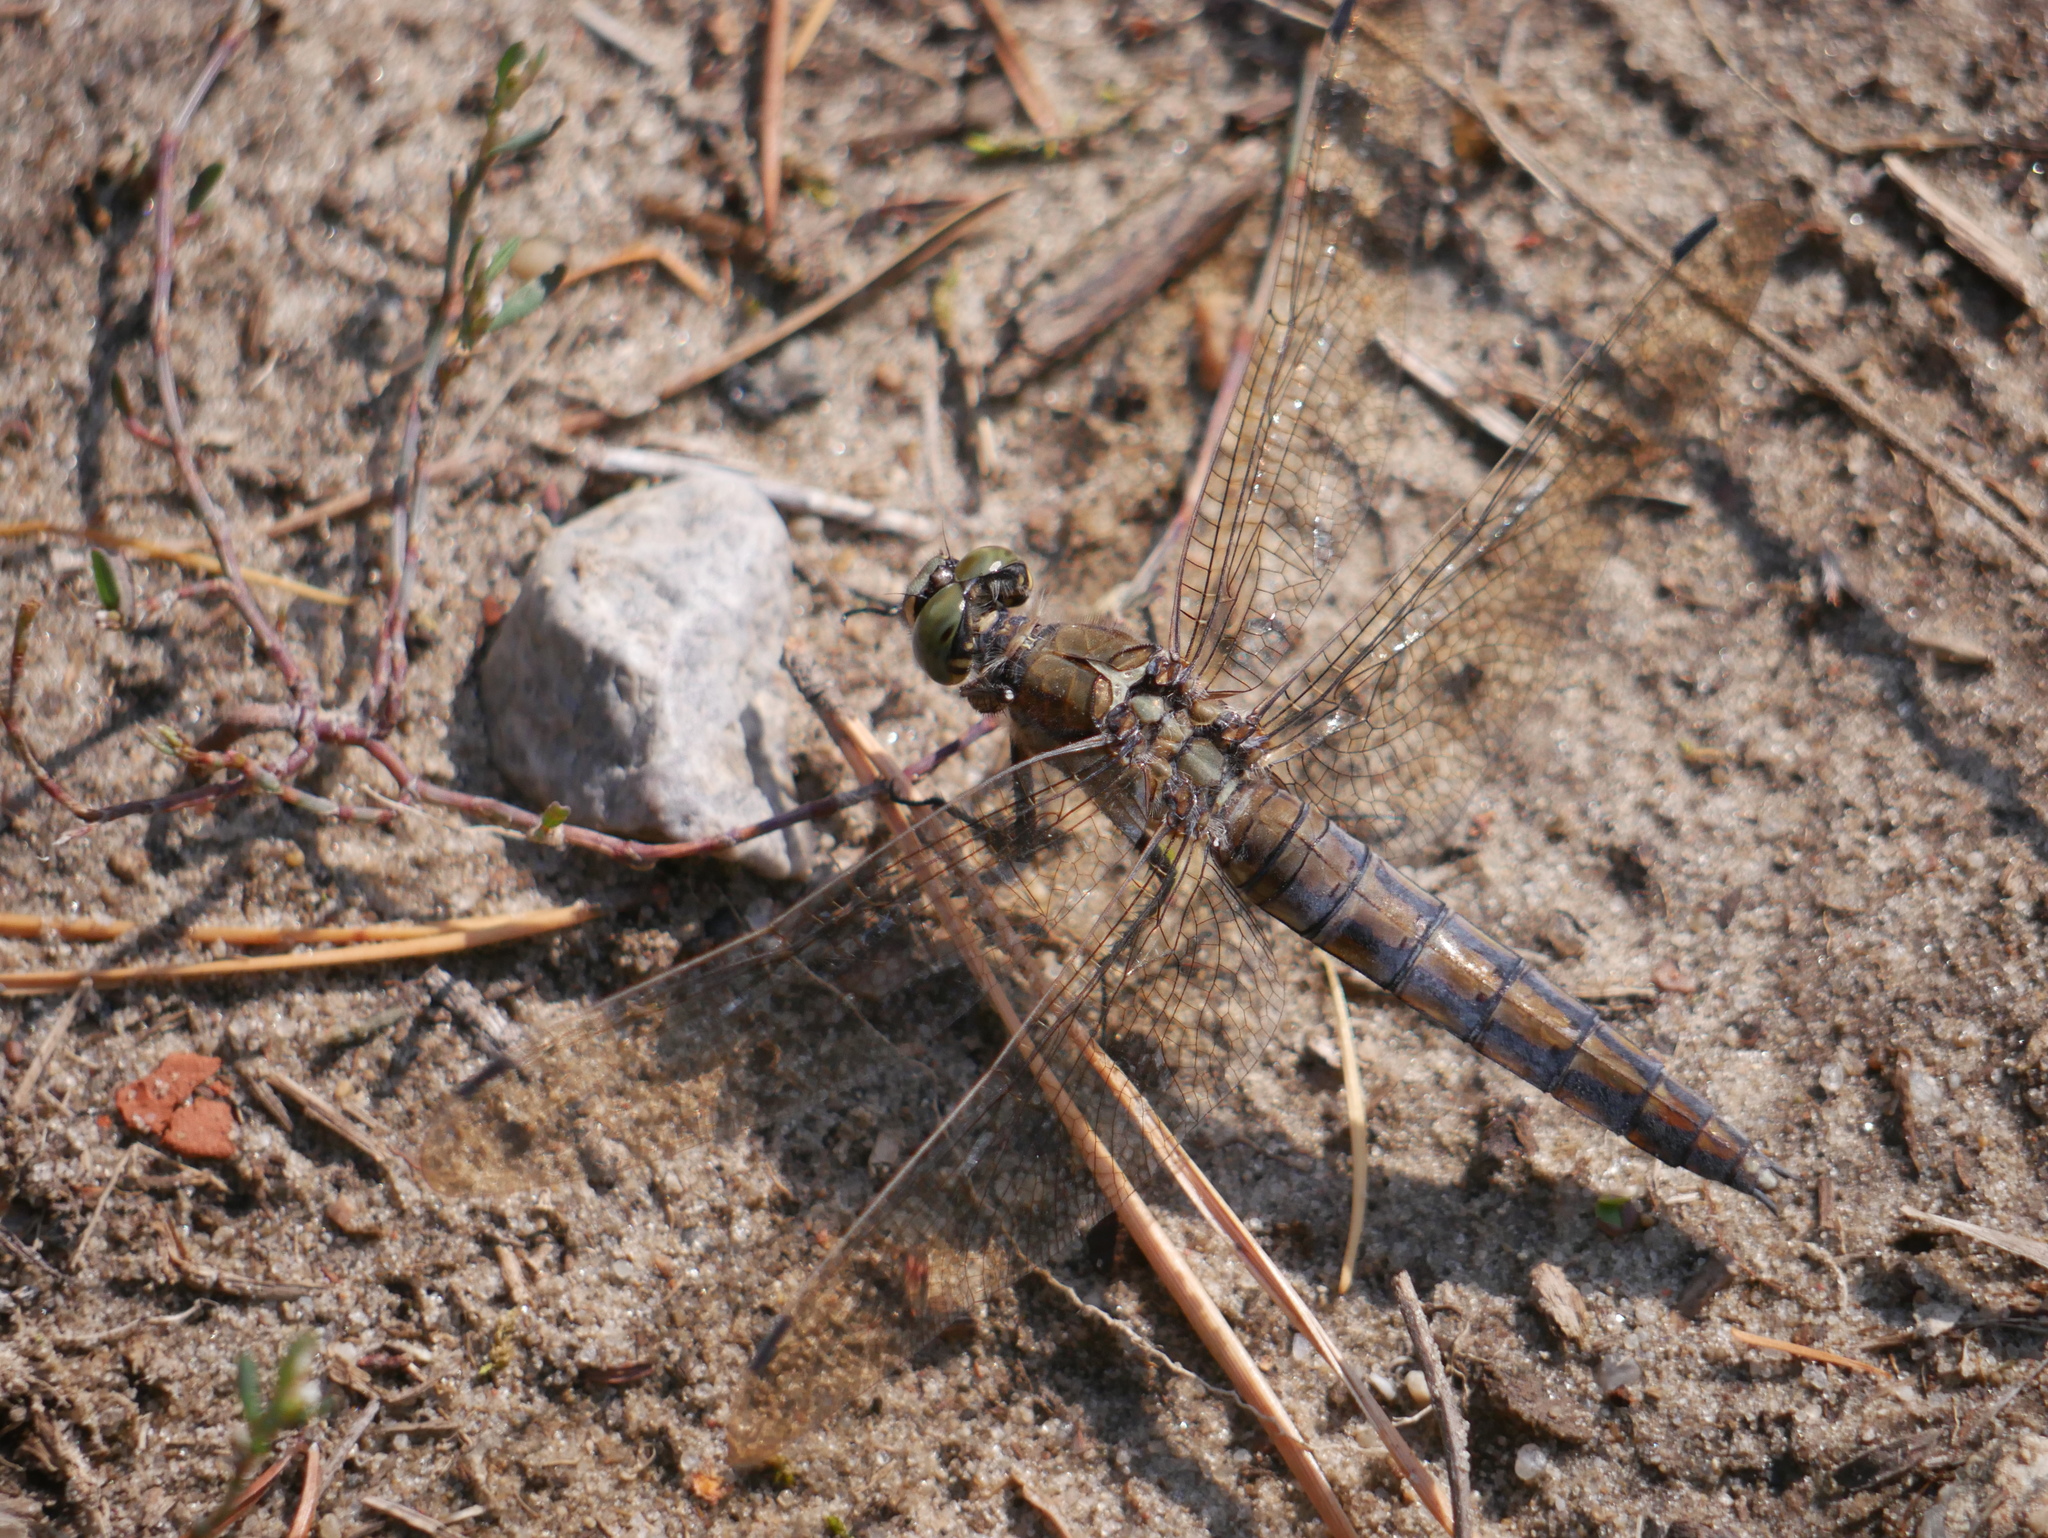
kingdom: Animalia
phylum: Arthropoda
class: Insecta
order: Odonata
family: Libellulidae
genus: Orthetrum
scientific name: Orthetrum cancellatum
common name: Black-tailed skimmer
